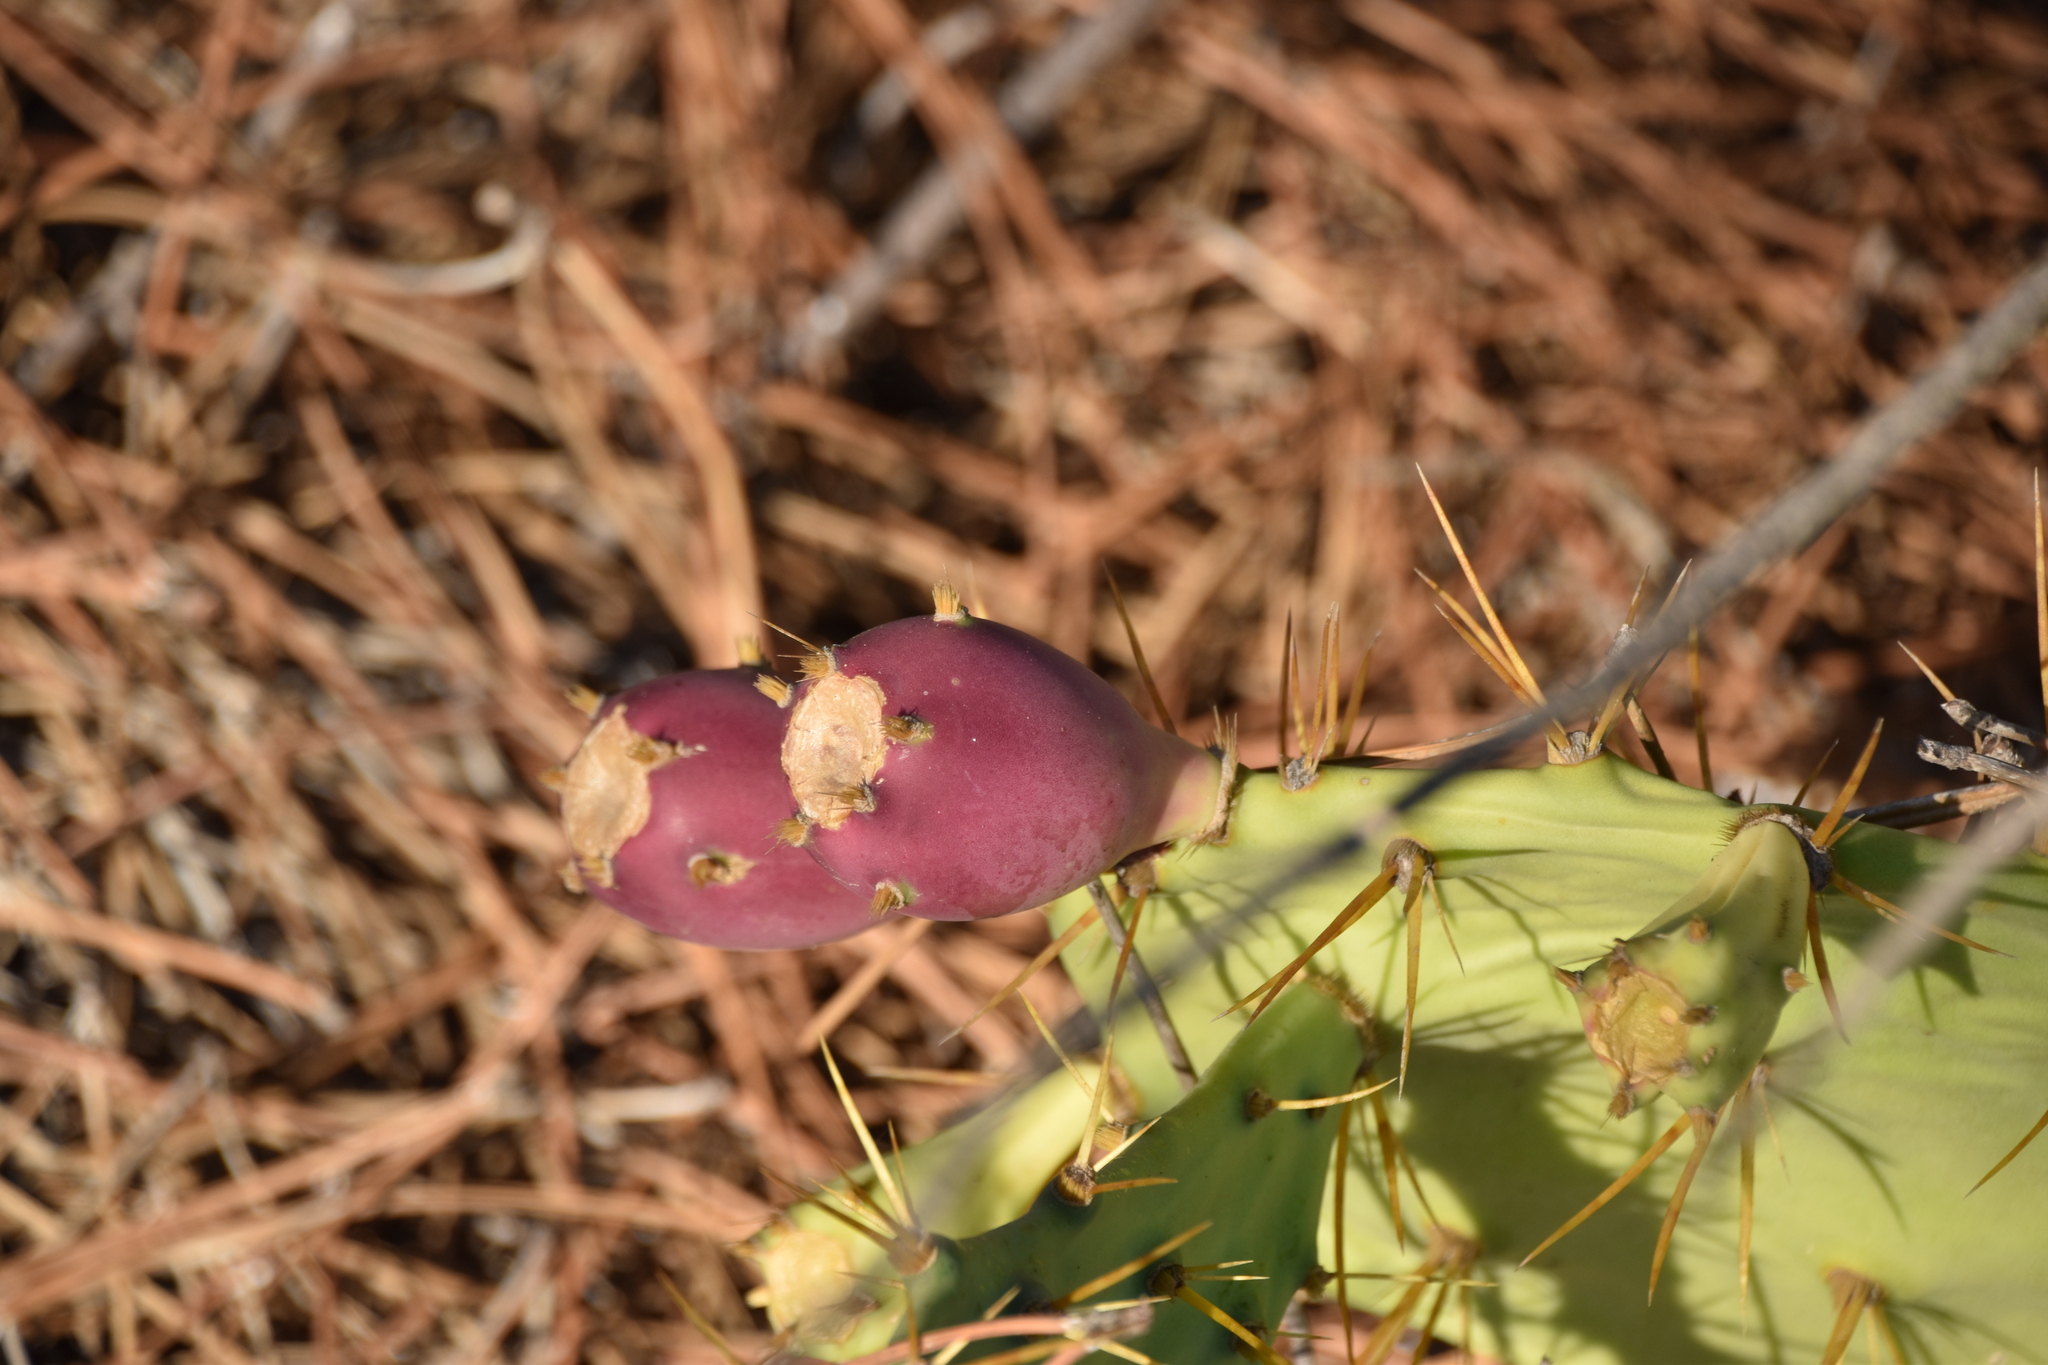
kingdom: Plantae
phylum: Tracheophyta
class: Magnoliopsida
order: Caryophyllales
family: Cactaceae
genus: Opuntia
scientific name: Opuntia stricta
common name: Erect pricklypear
